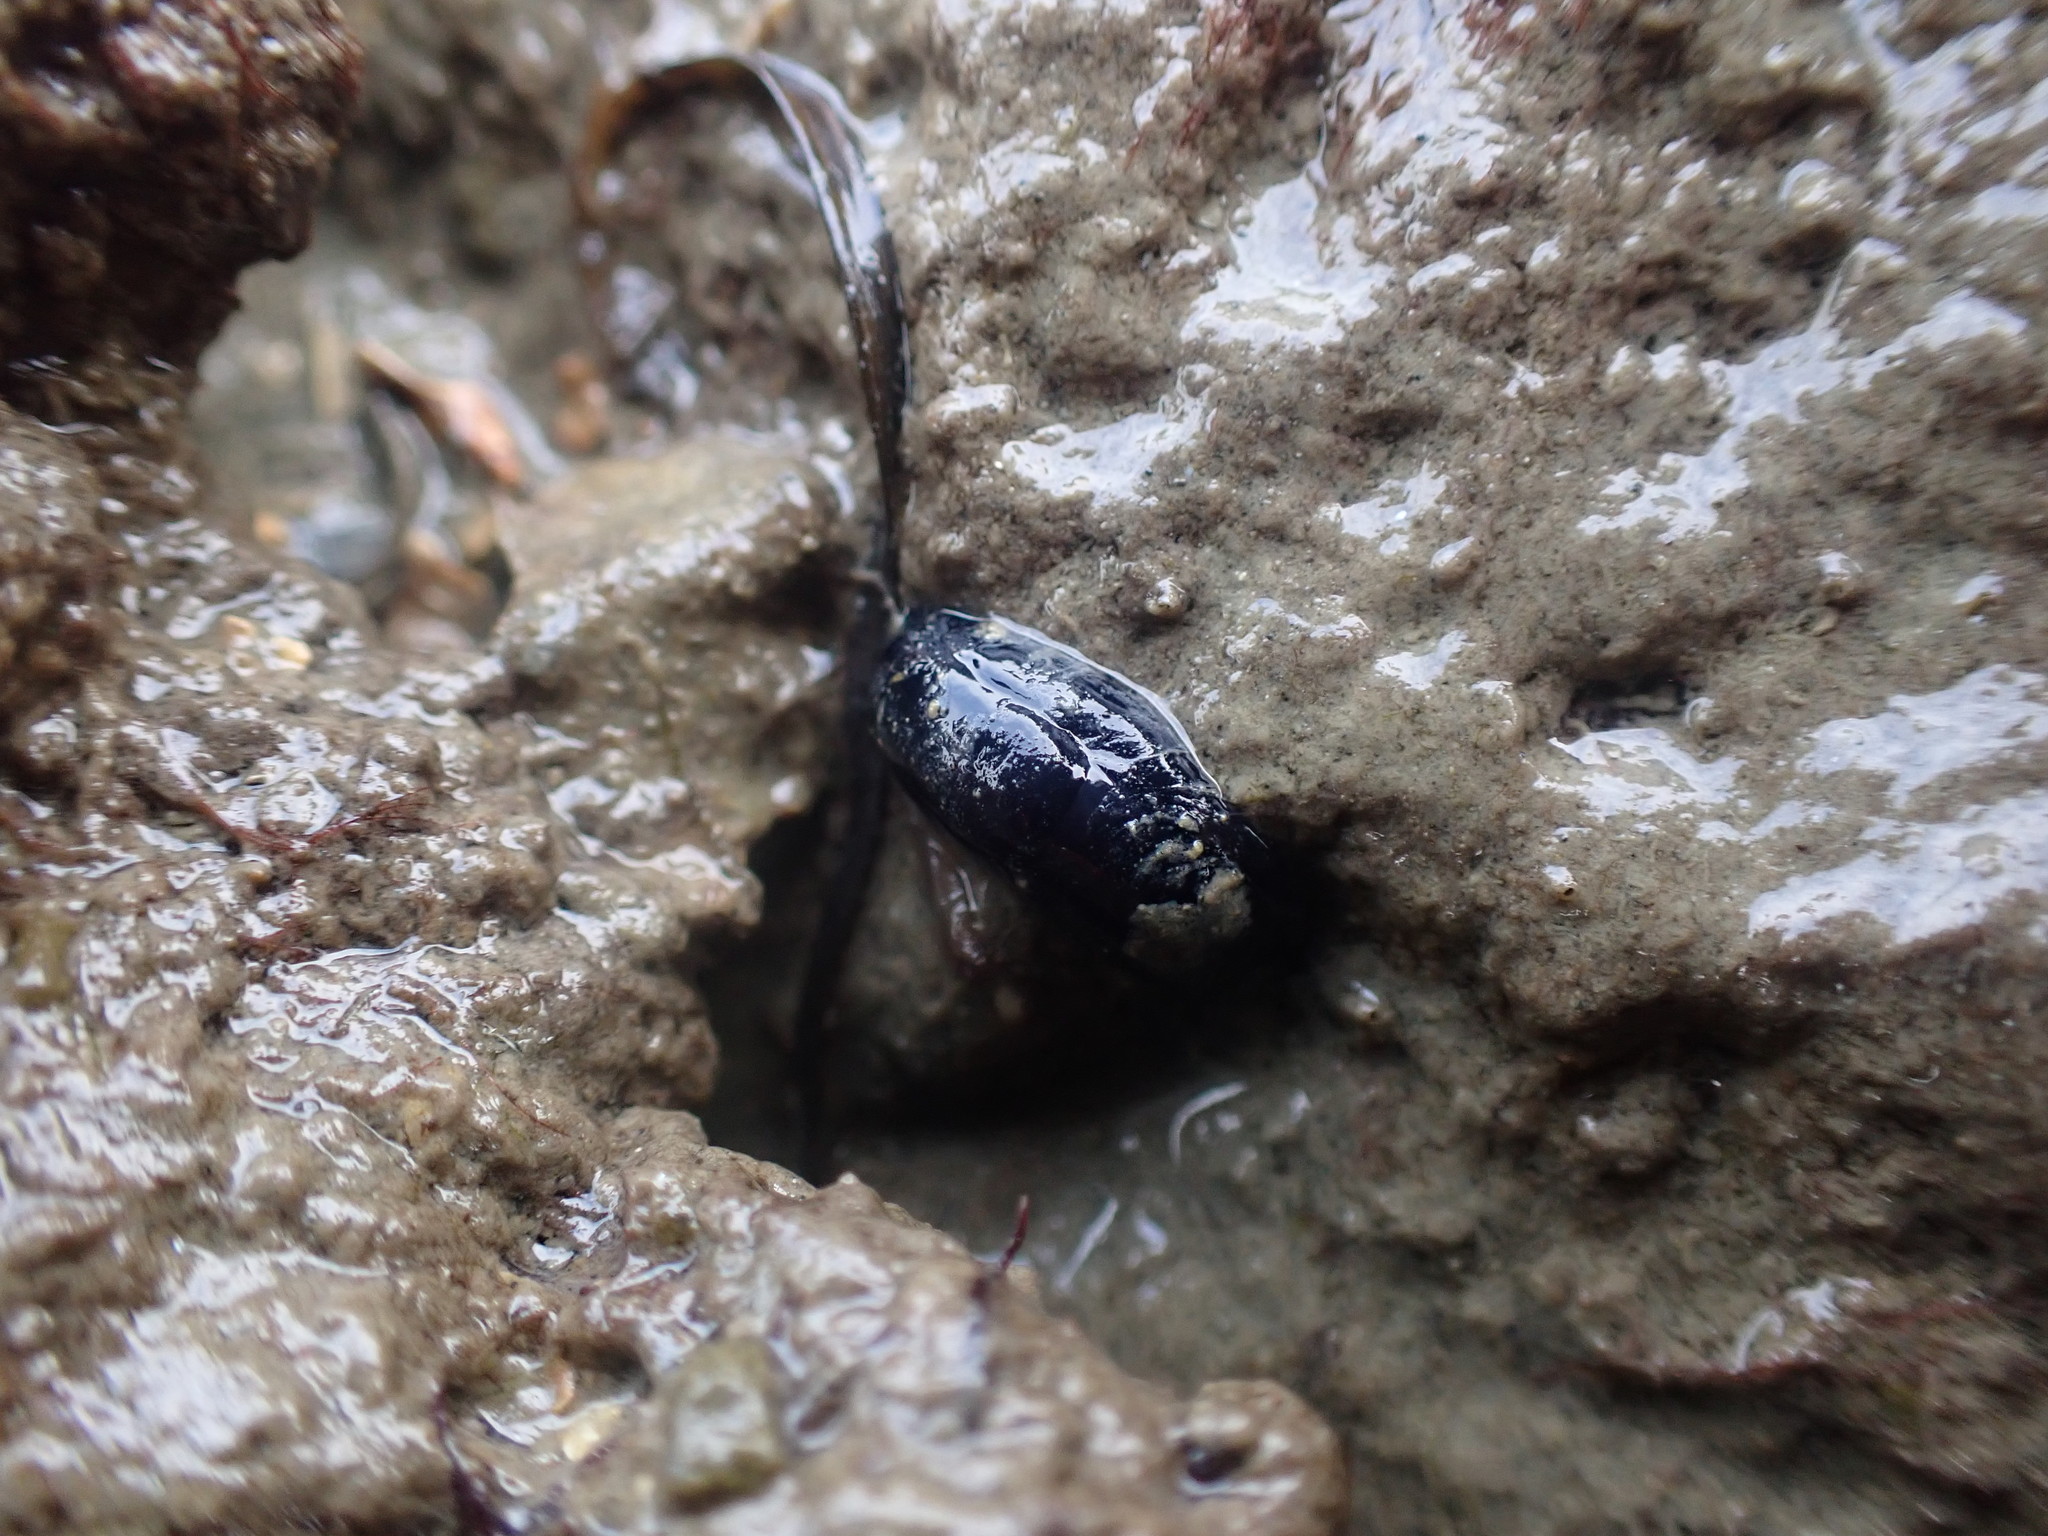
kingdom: Animalia
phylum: Mollusca
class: Gastropoda
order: Cephalaspidea
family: Aglajidae
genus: Melanochlamys
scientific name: Melanochlamys cylindrica
